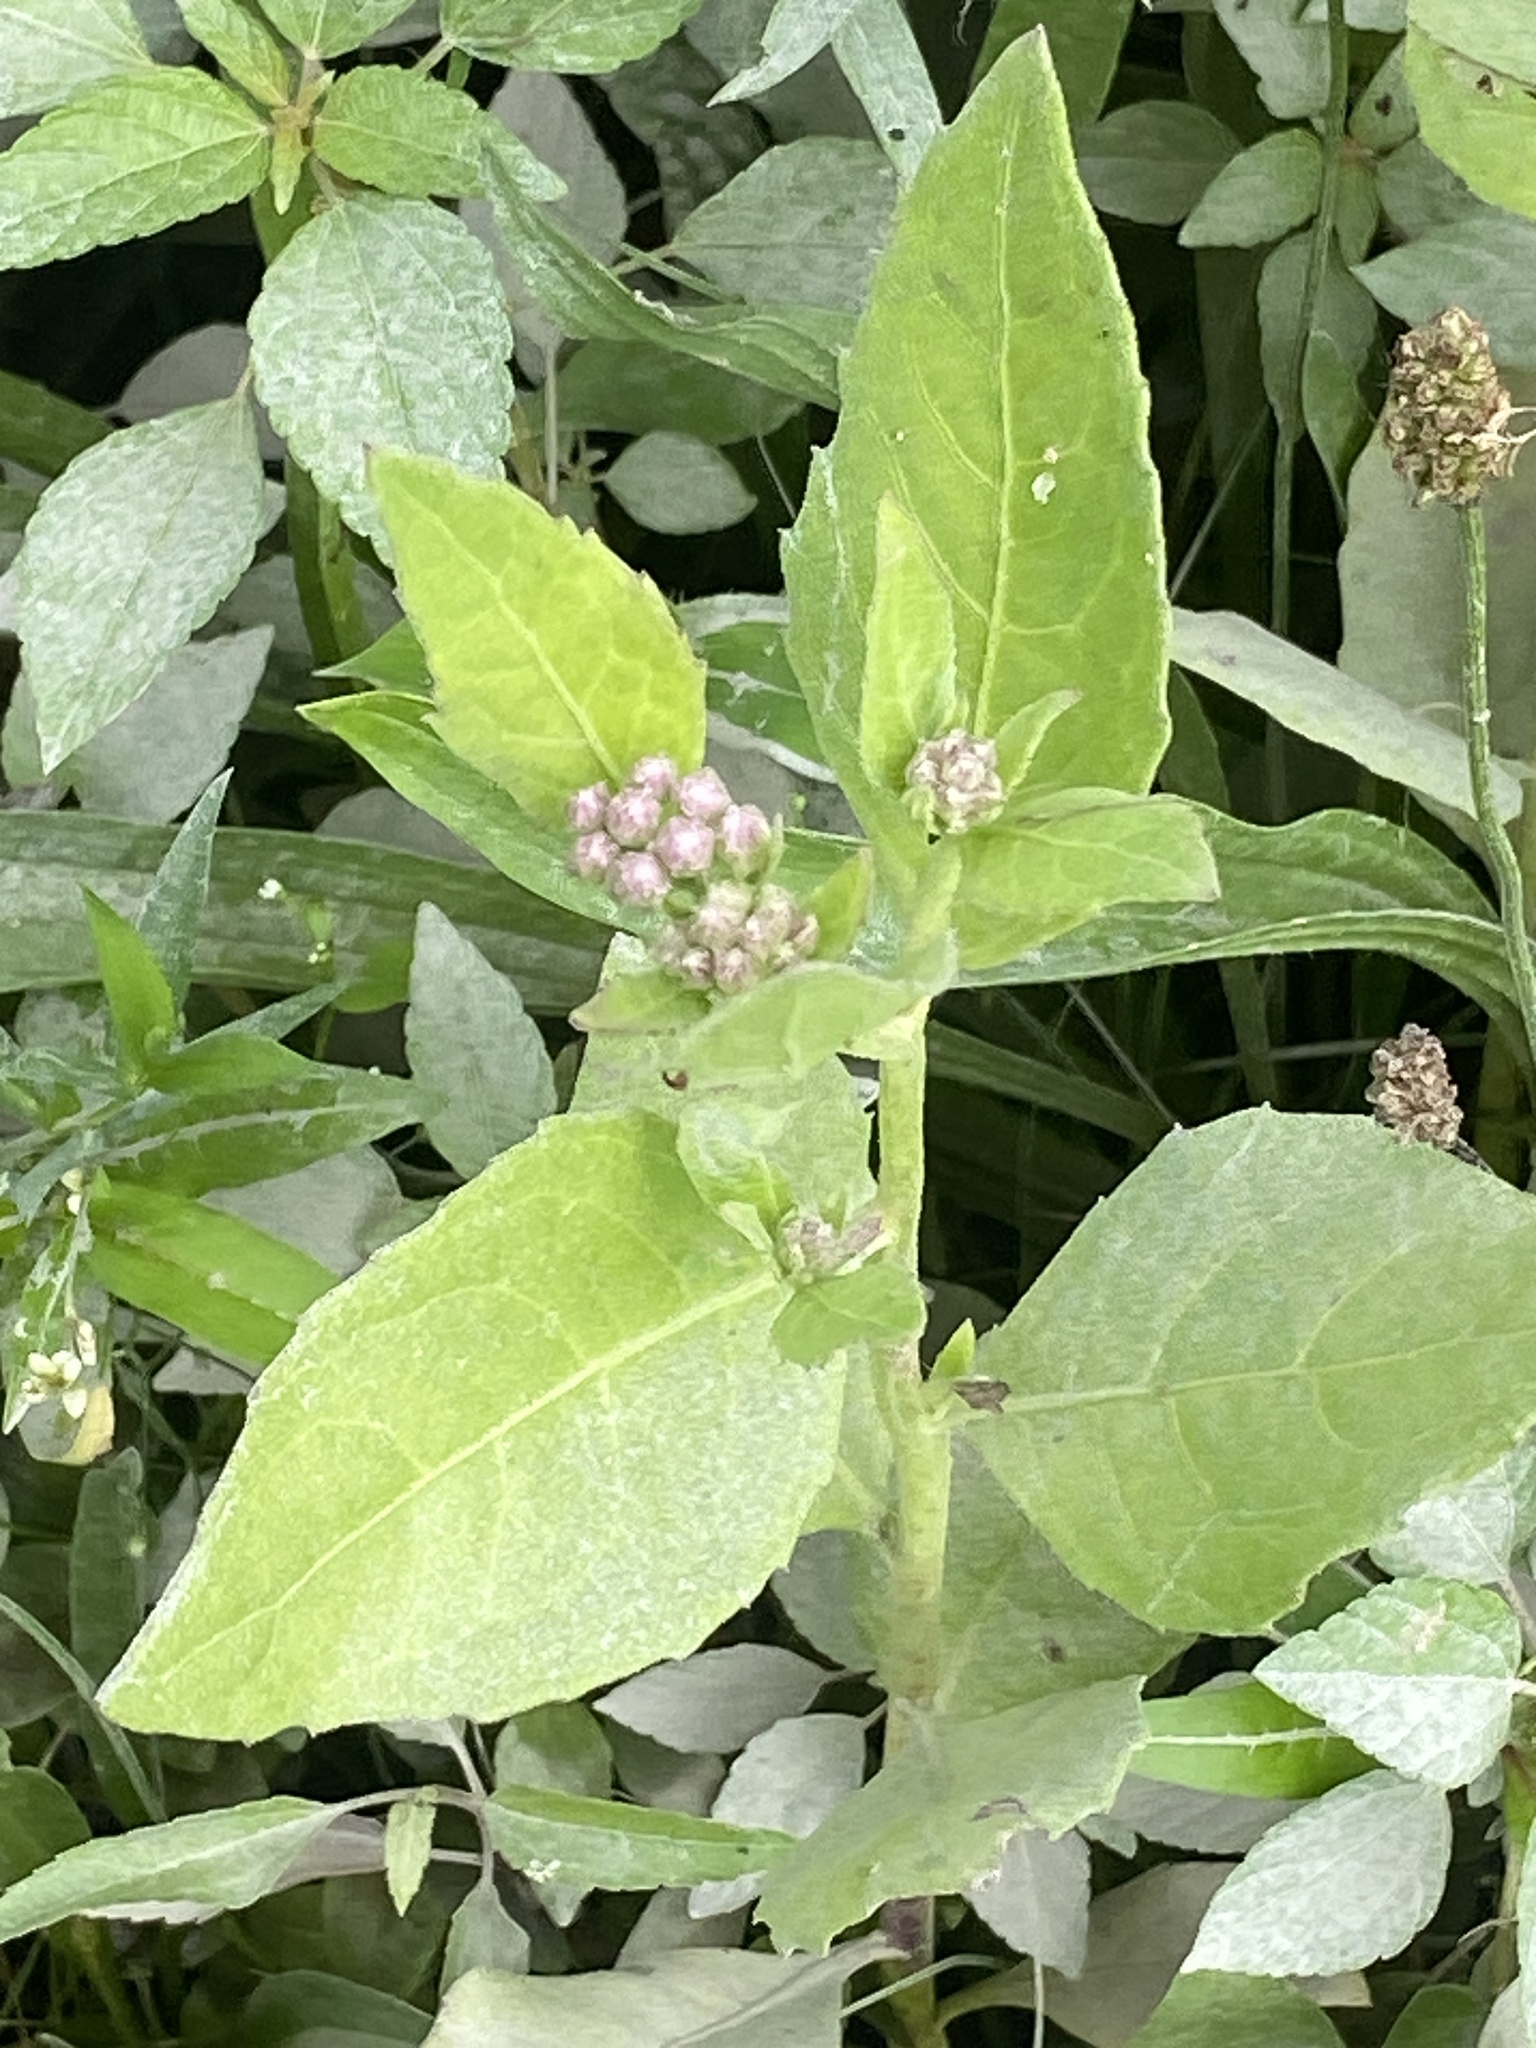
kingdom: Plantae
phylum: Tracheophyta
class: Magnoliopsida
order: Asterales
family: Asteraceae
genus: Pluchea
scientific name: Pluchea odorata
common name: Saltmarsh fleabane
